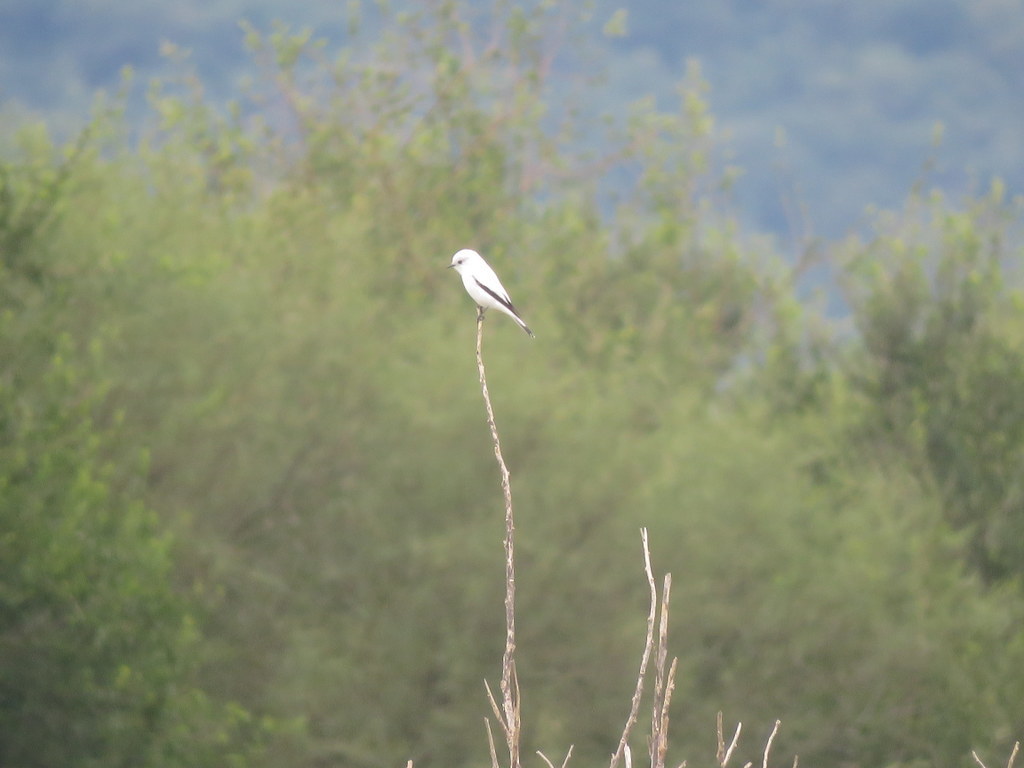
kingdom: Animalia
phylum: Chordata
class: Aves
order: Passeriformes
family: Tyrannidae
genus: Xolmis
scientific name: Xolmis irupero
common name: White monjita
